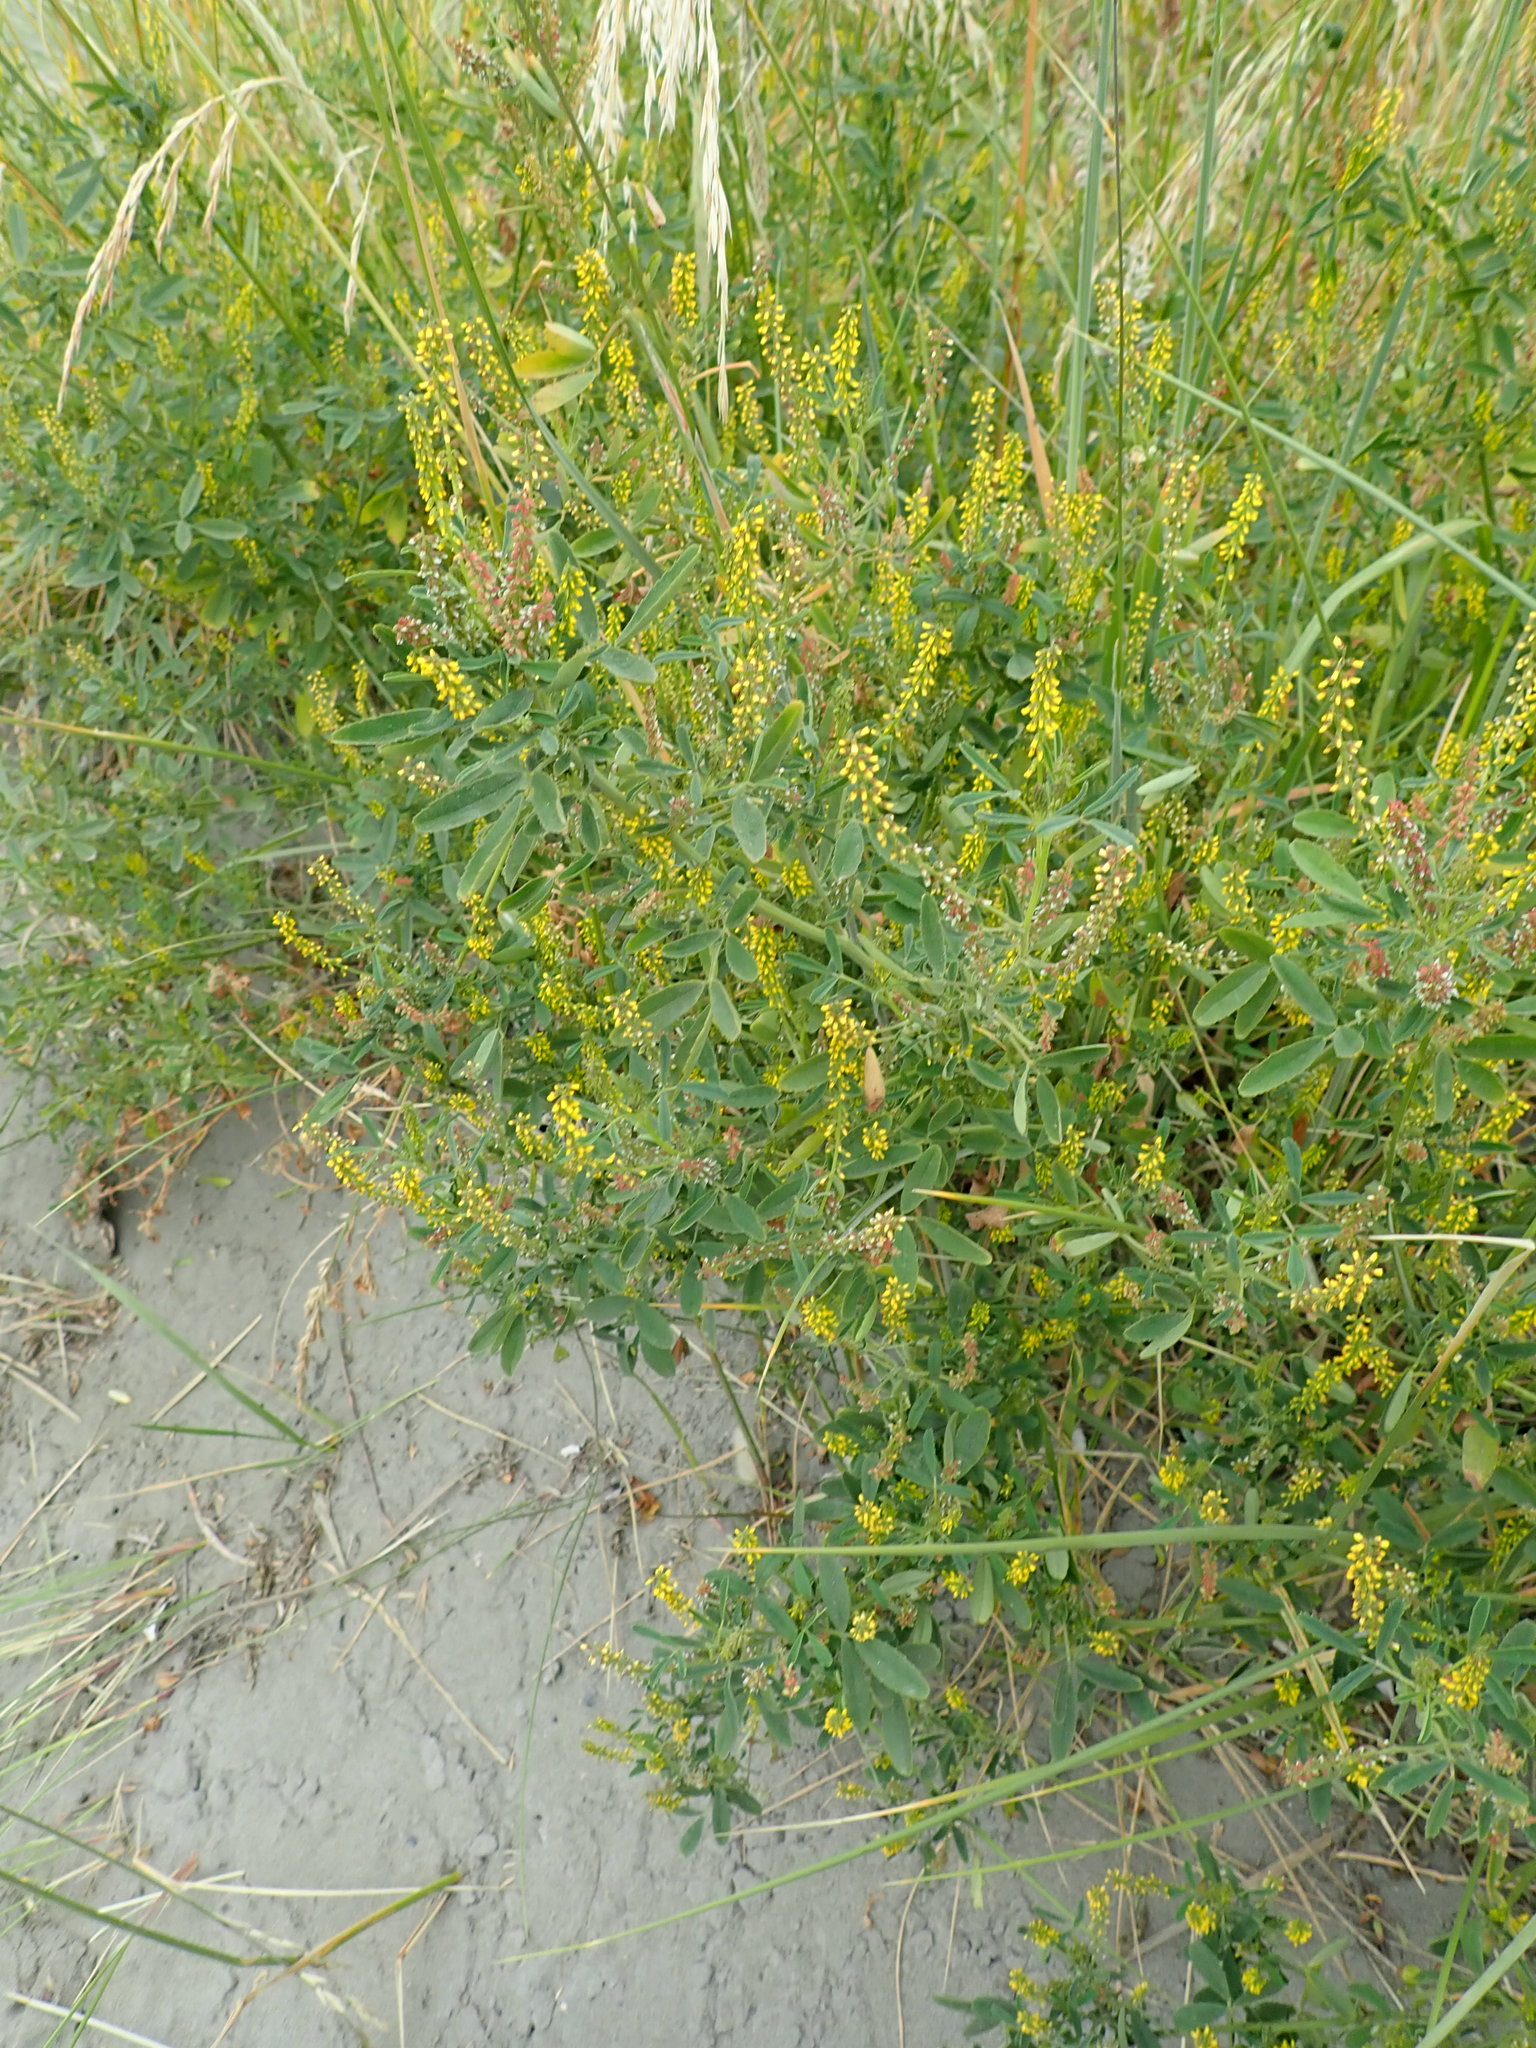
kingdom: Plantae
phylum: Tracheophyta
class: Magnoliopsida
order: Fabales
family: Fabaceae
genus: Melilotus
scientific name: Melilotus indicus
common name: Small melilot
